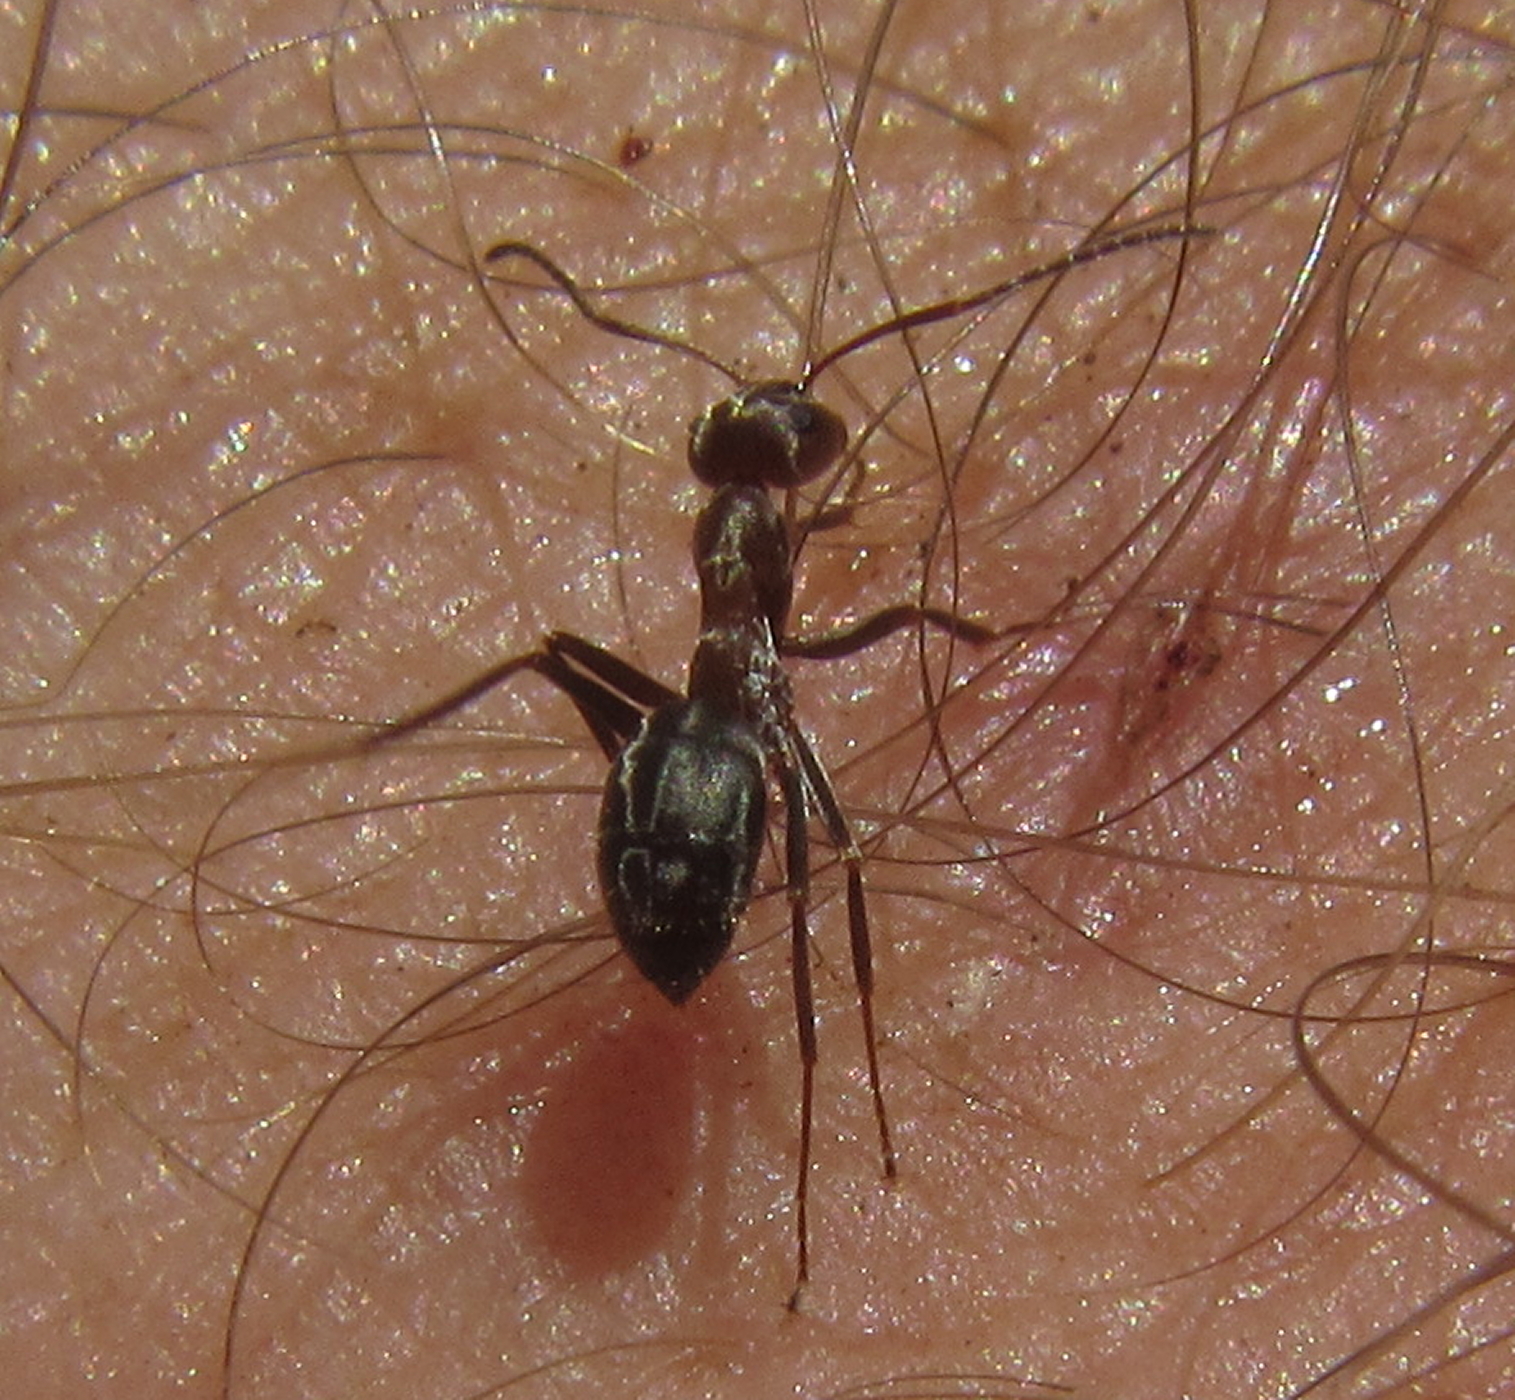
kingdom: Animalia
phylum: Arthropoda
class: Insecta
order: Hymenoptera
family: Formicidae
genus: Anoplolepis
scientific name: Anoplolepis custodiens
